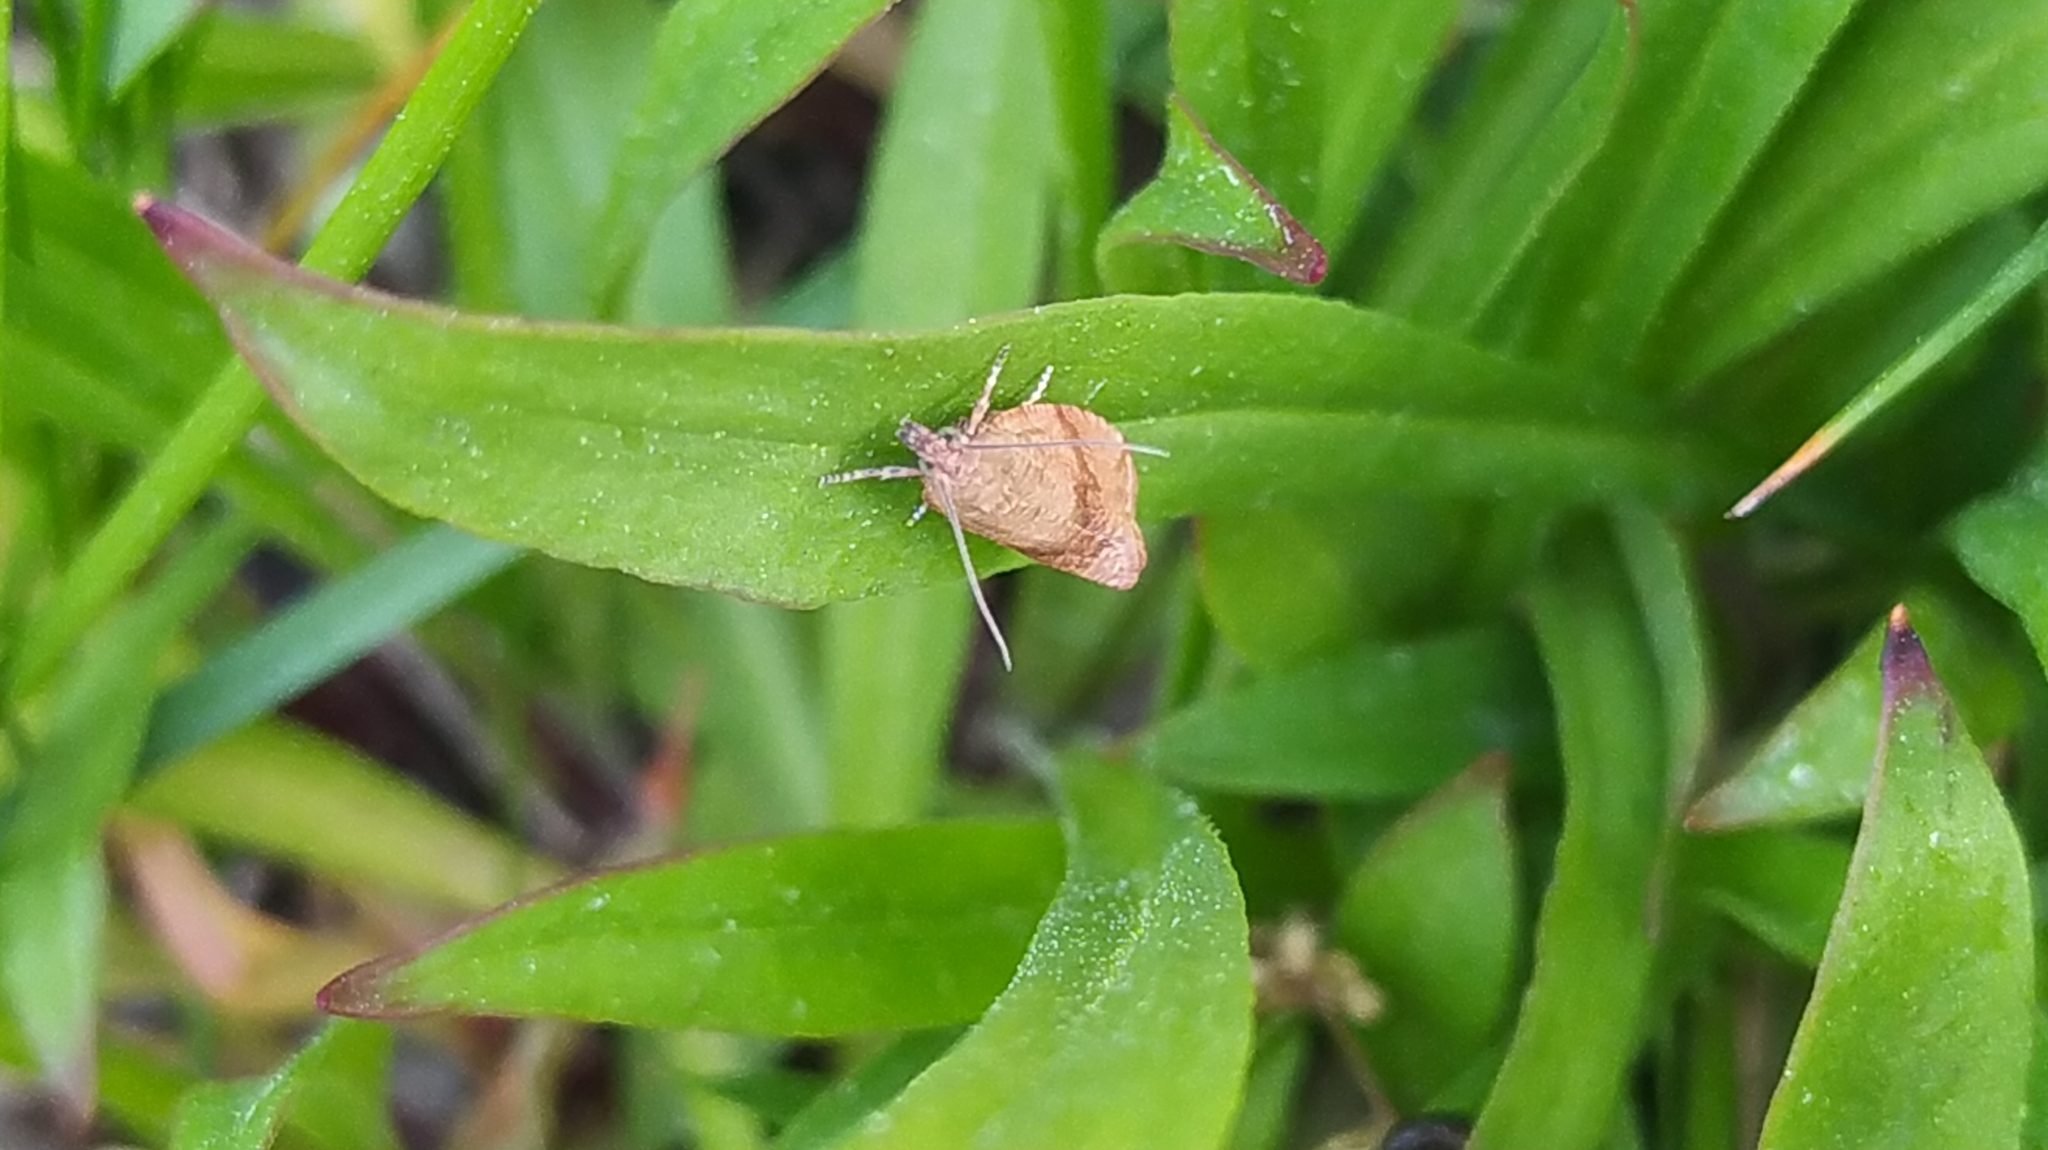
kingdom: Animalia
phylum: Arthropoda
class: Insecta
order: Lepidoptera
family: Tortricidae
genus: Celypha
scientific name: Celypha striana
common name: Barred marble
